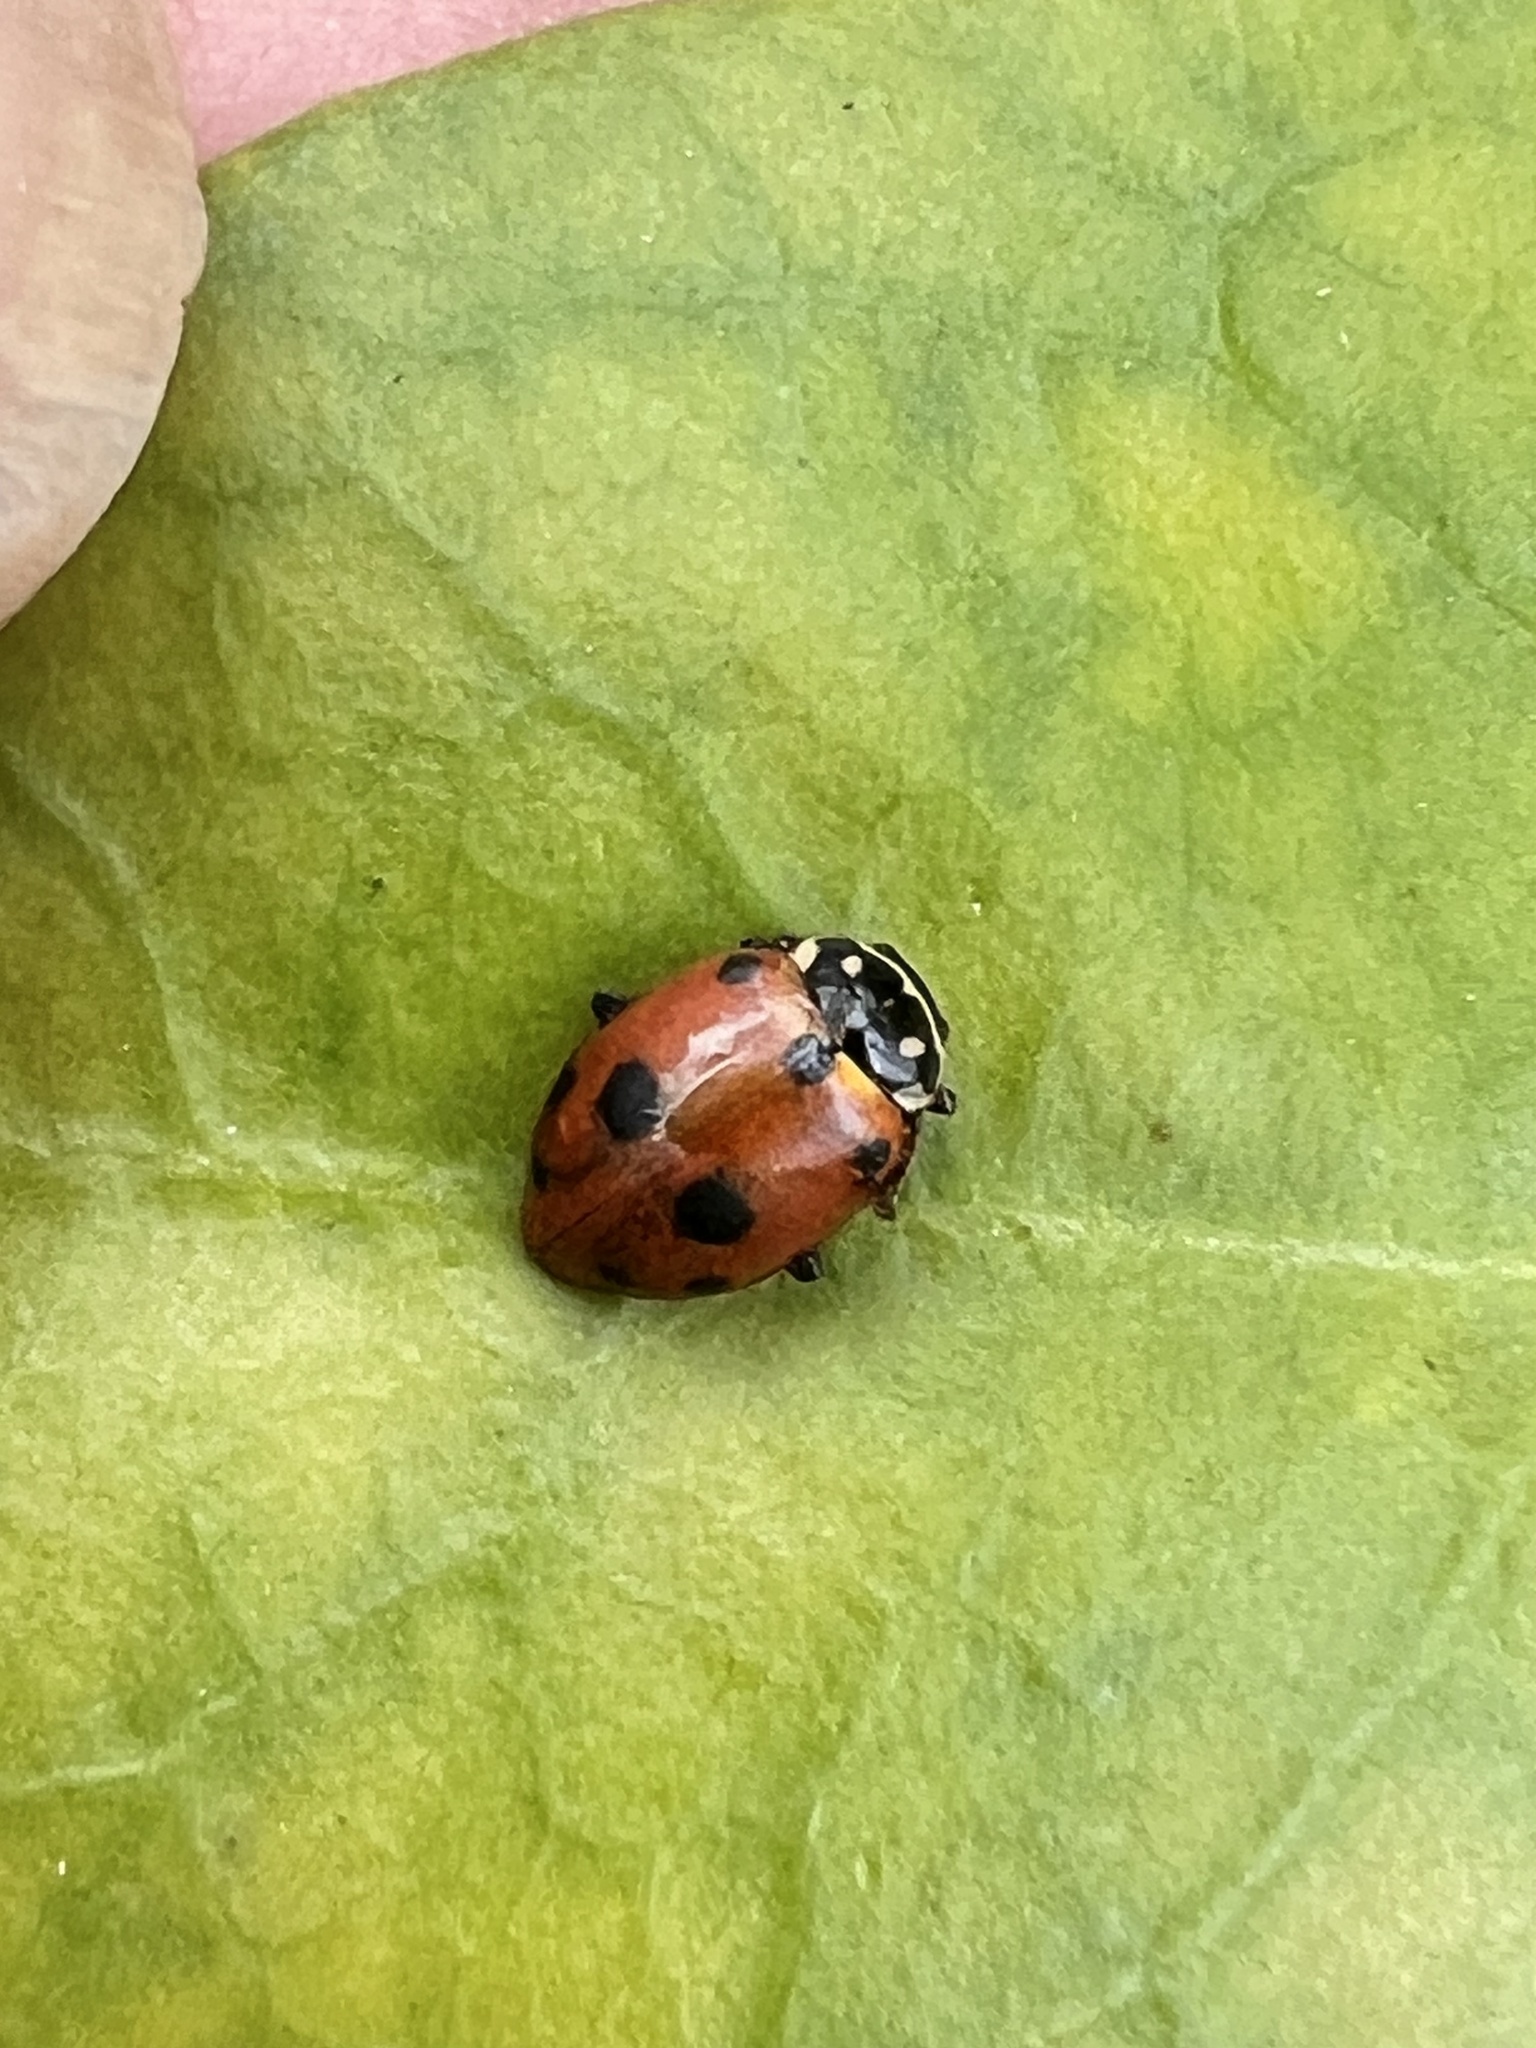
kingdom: Animalia
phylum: Arthropoda
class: Insecta
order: Coleoptera
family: Coccinellidae
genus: Hippodamia
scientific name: Hippodamia variegata
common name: Ladybird beetle
